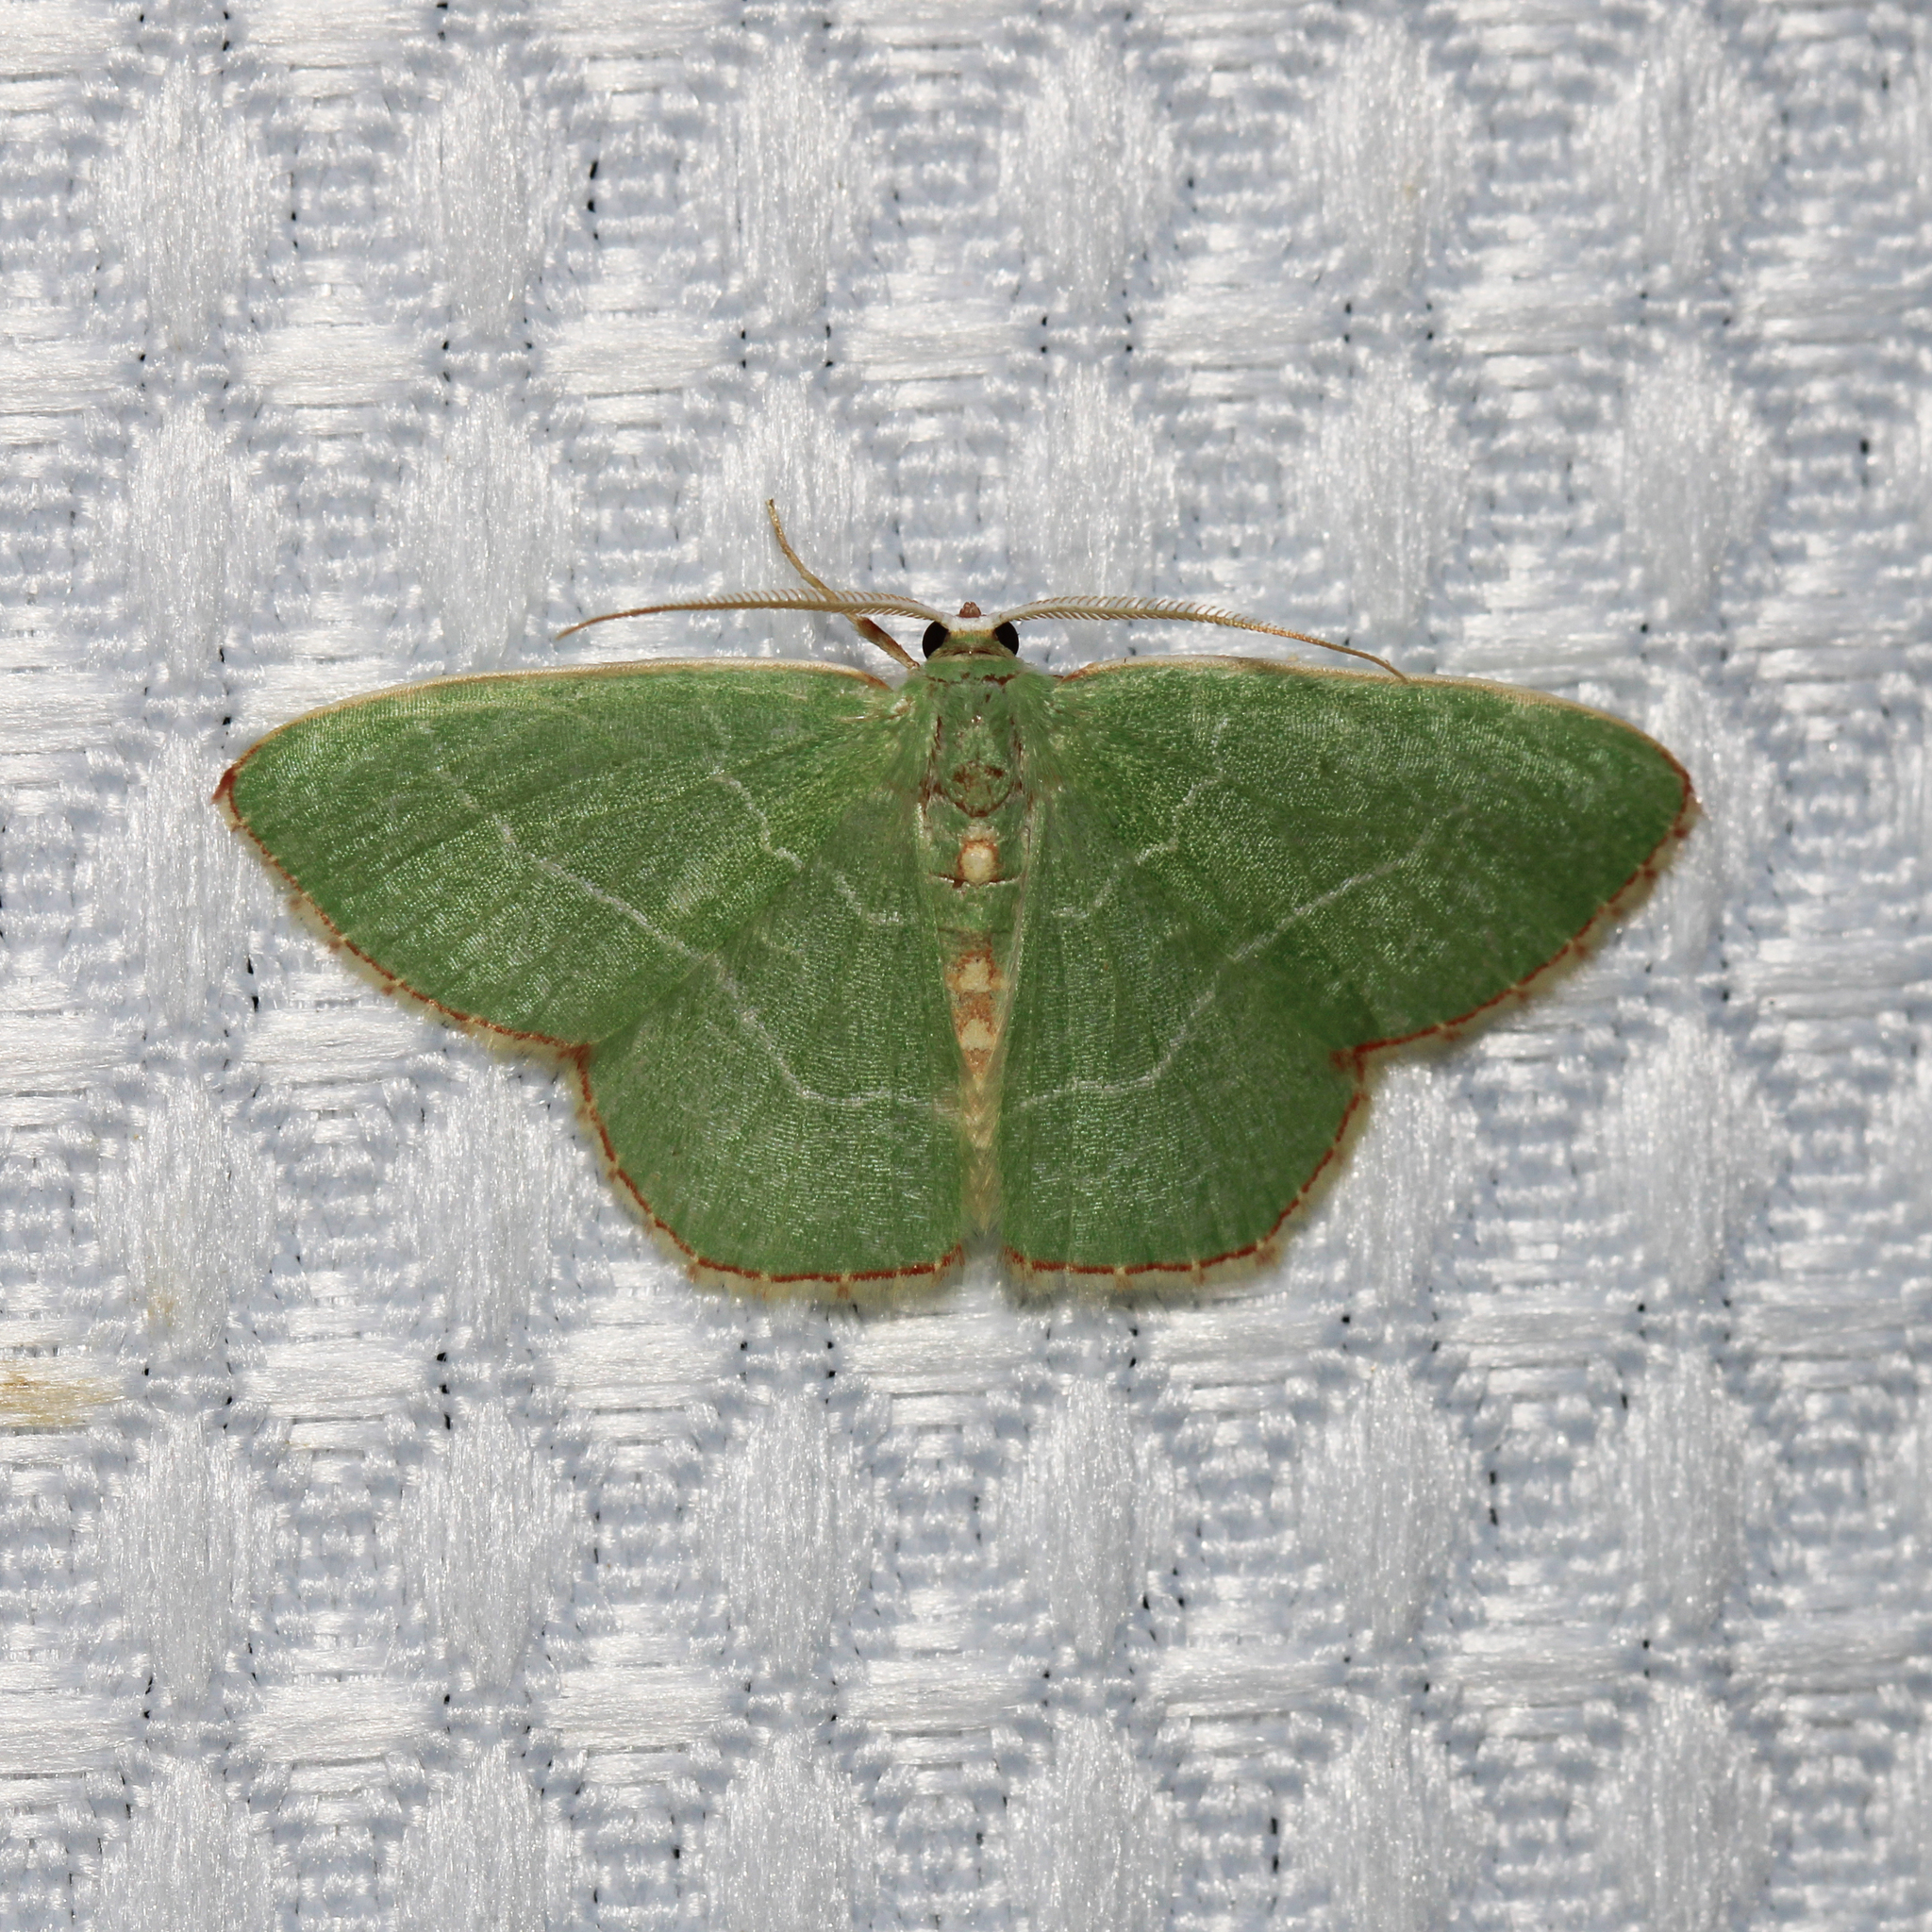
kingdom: Animalia
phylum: Arthropoda
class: Insecta
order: Lepidoptera
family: Geometridae
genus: Nemoria
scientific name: Nemoria bistriaria
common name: Red-fringed emerald
